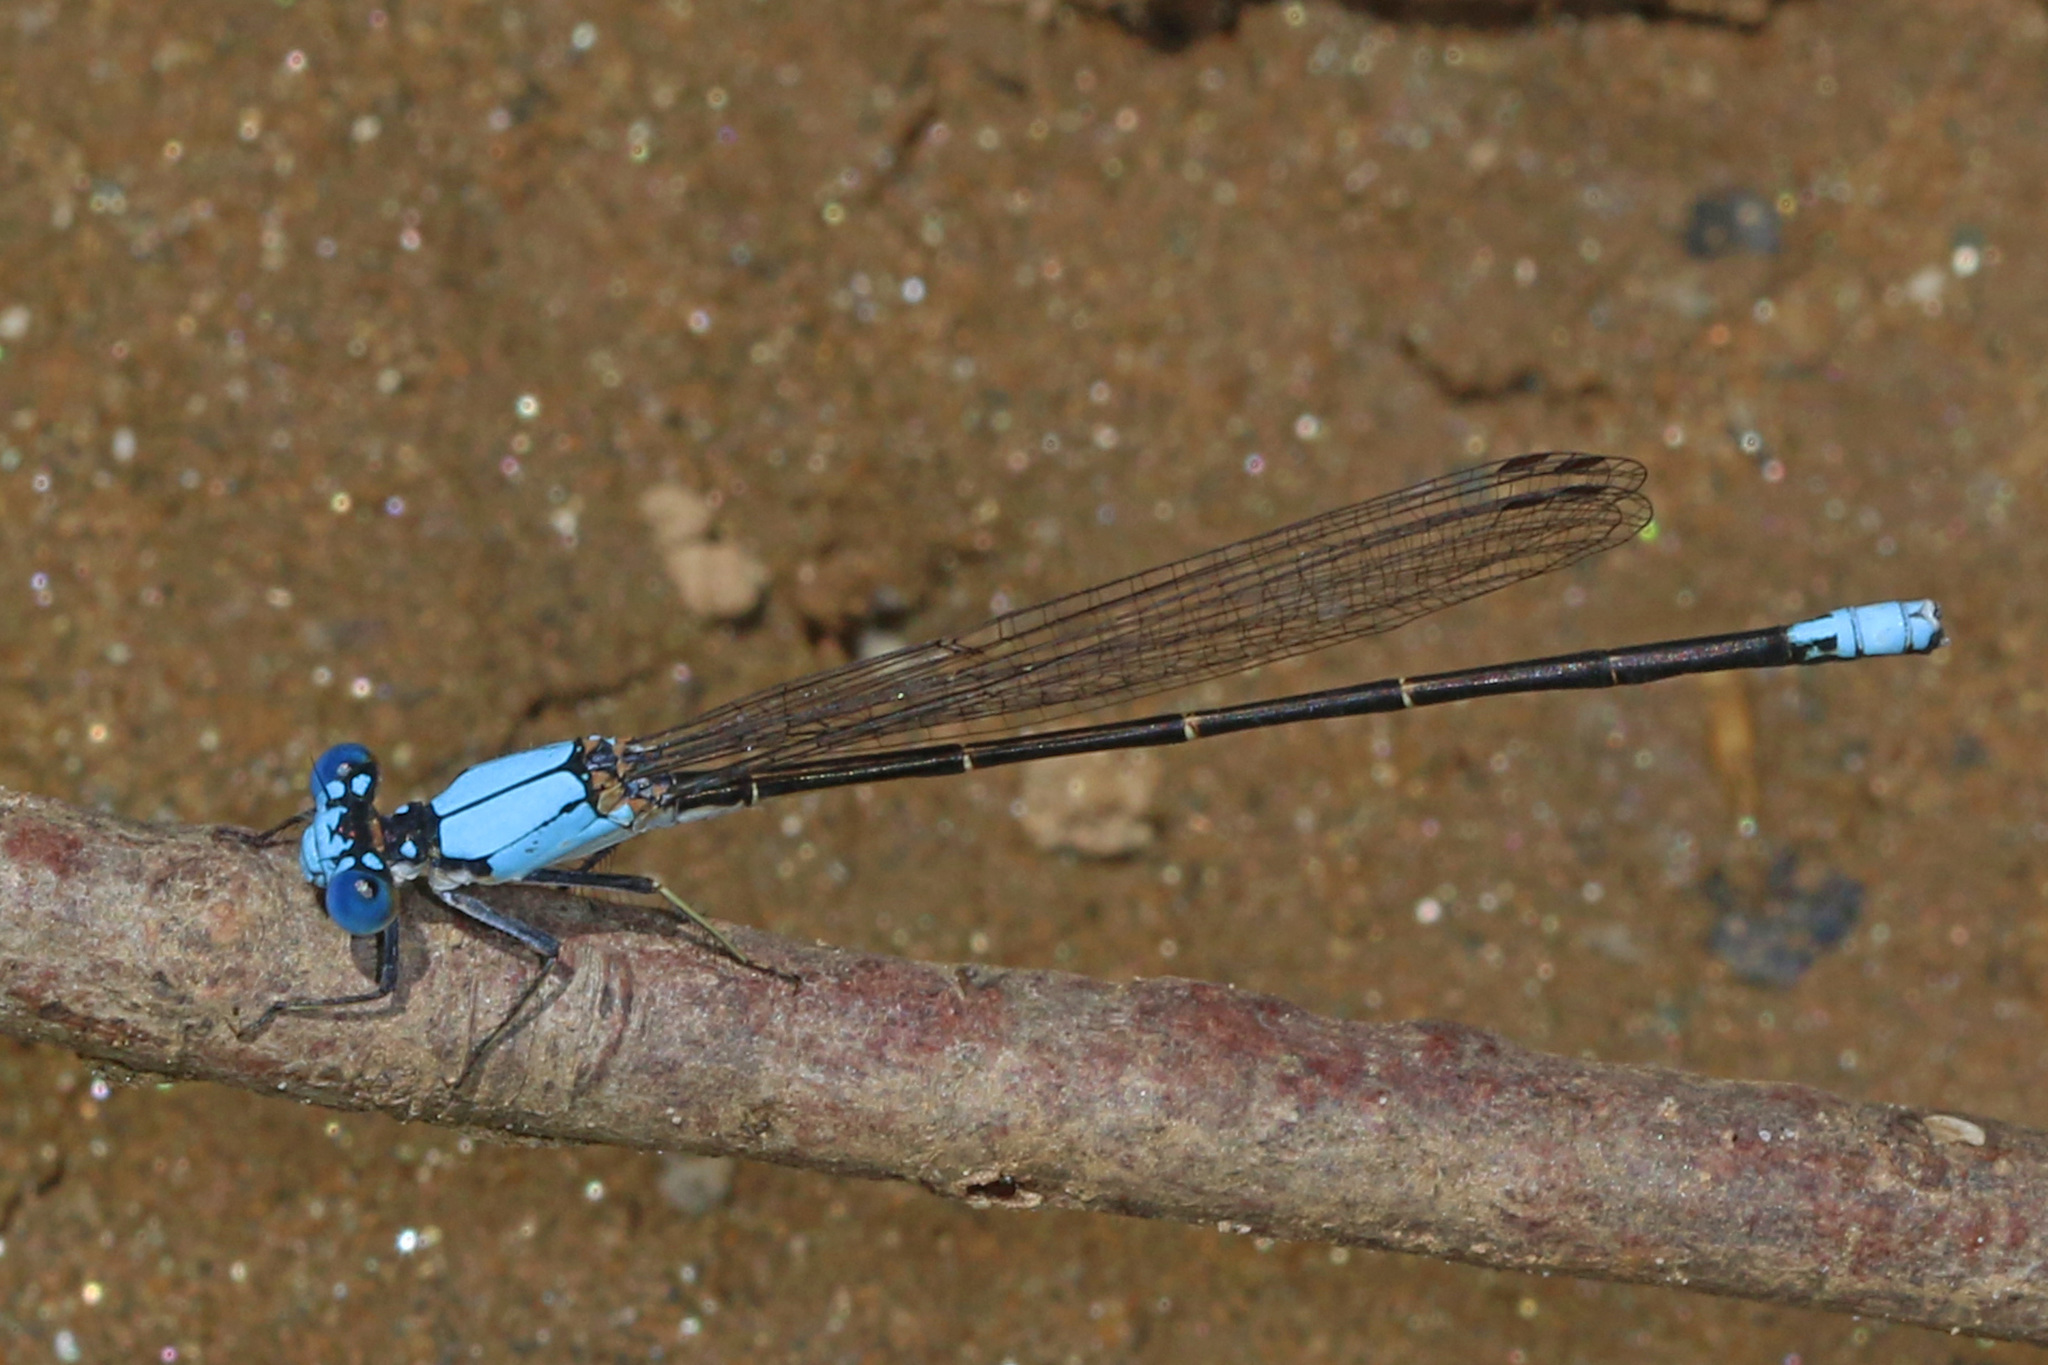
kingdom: Animalia
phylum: Arthropoda
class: Insecta
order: Odonata
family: Coenagrionidae
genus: Argia
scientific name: Argia apicalis
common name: Blue-fronted dancer
